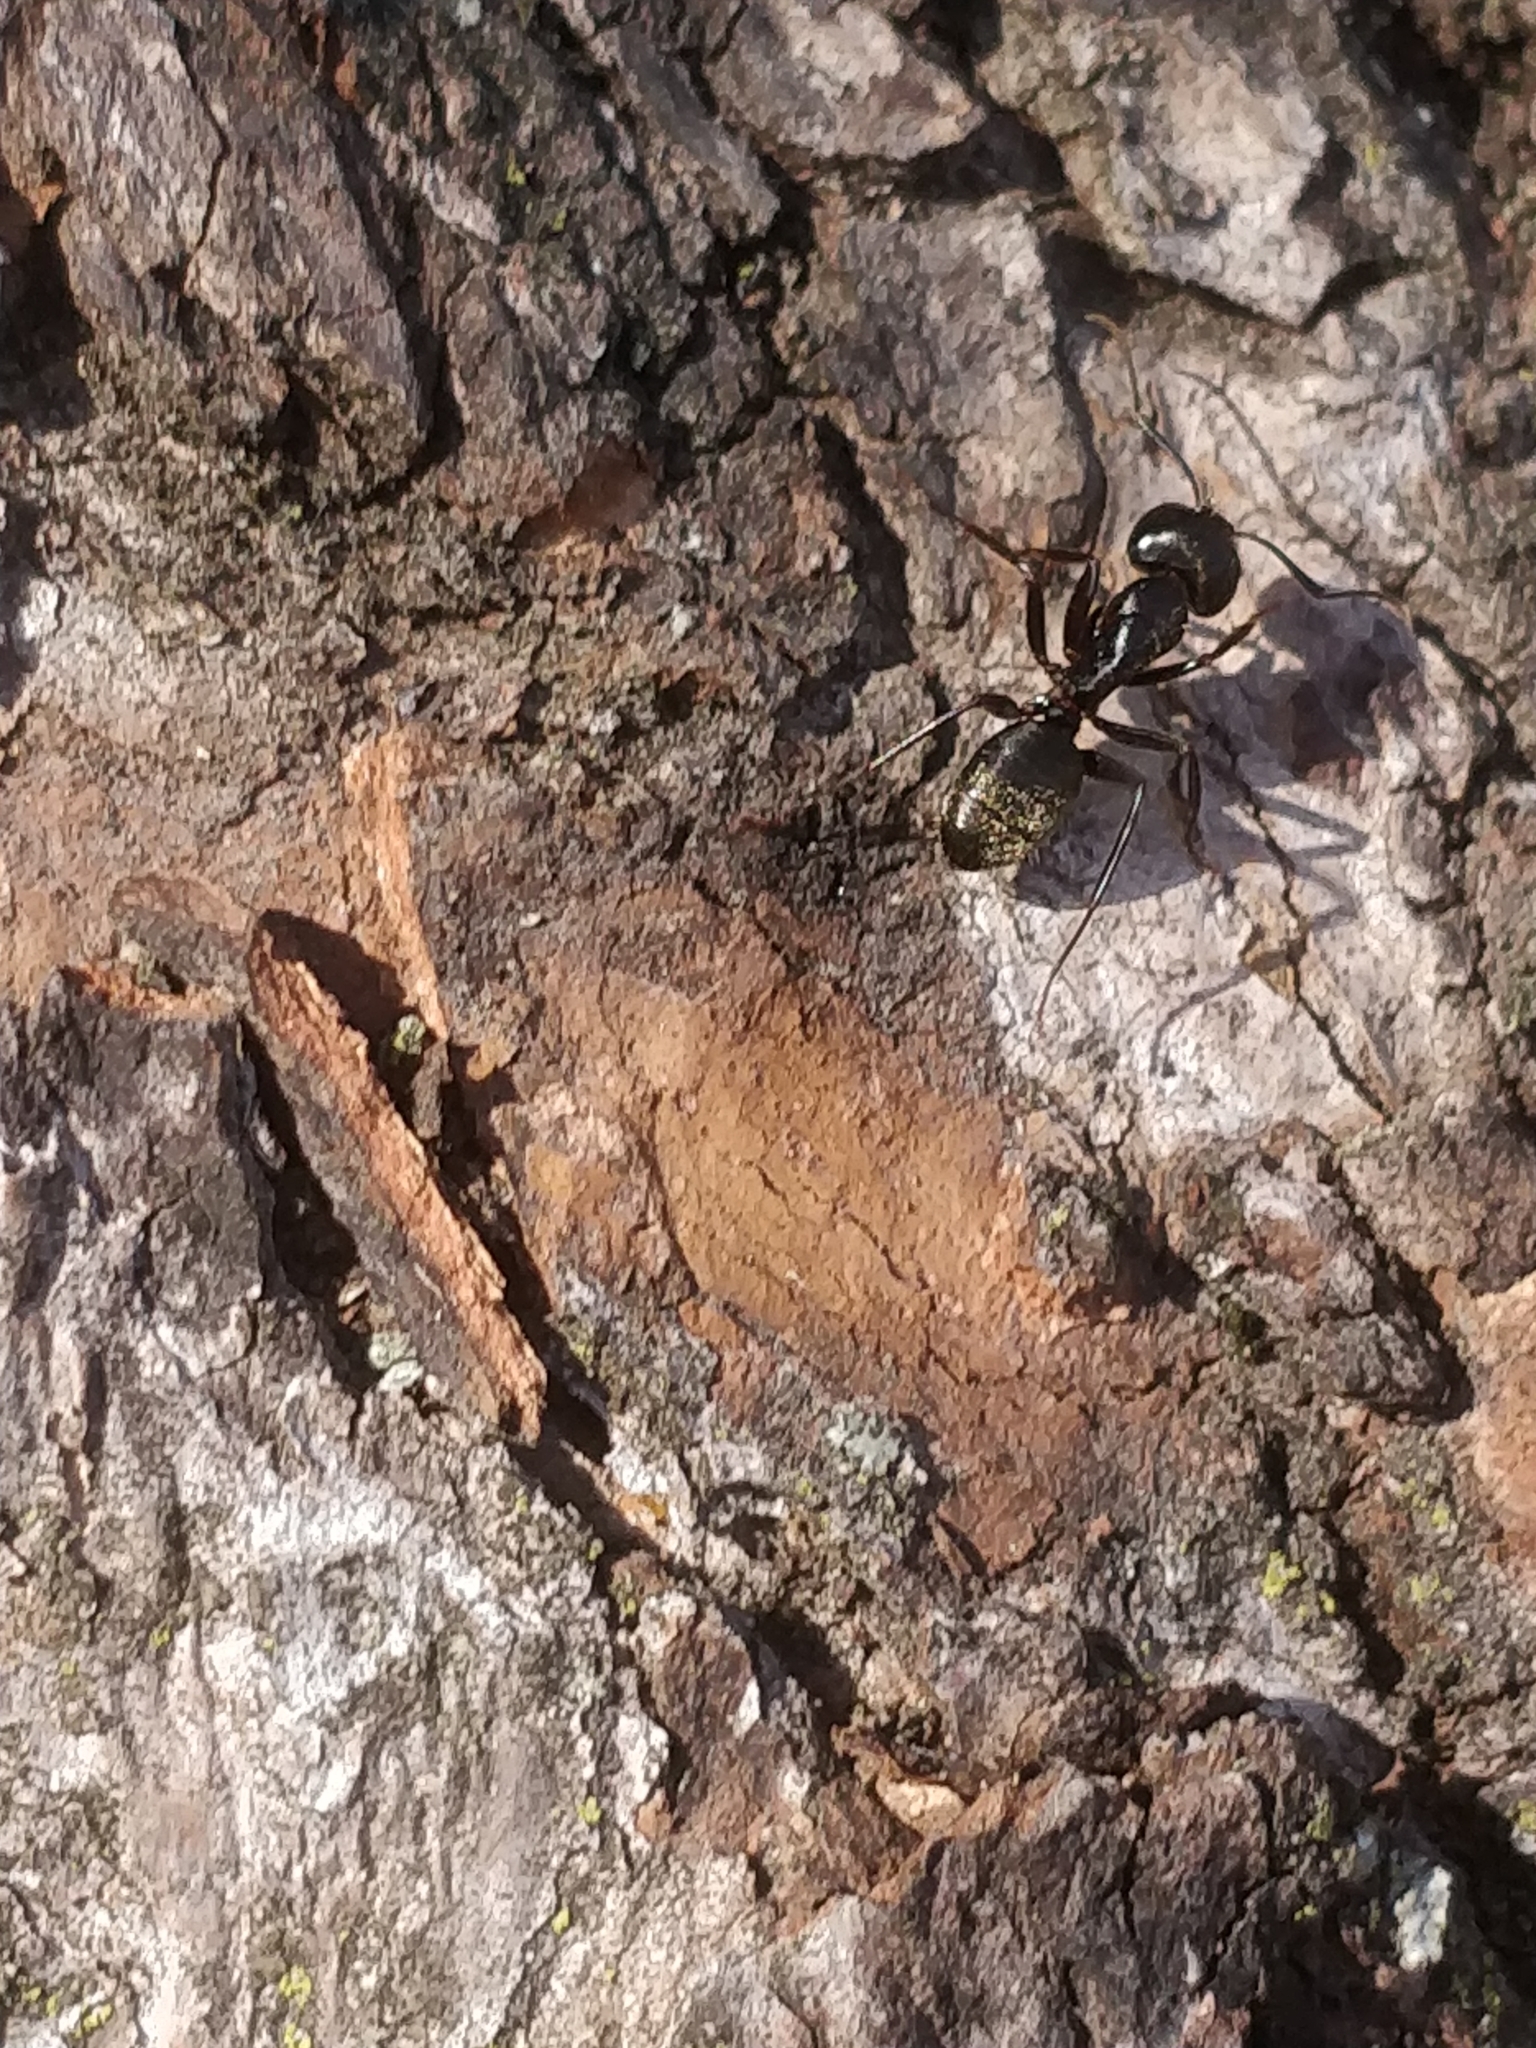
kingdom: Animalia
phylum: Arthropoda
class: Insecta
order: Hymenoptera
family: Formicidae
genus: Camponotus
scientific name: Camponotus pennsylvanicus
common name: Black carpenter ant
